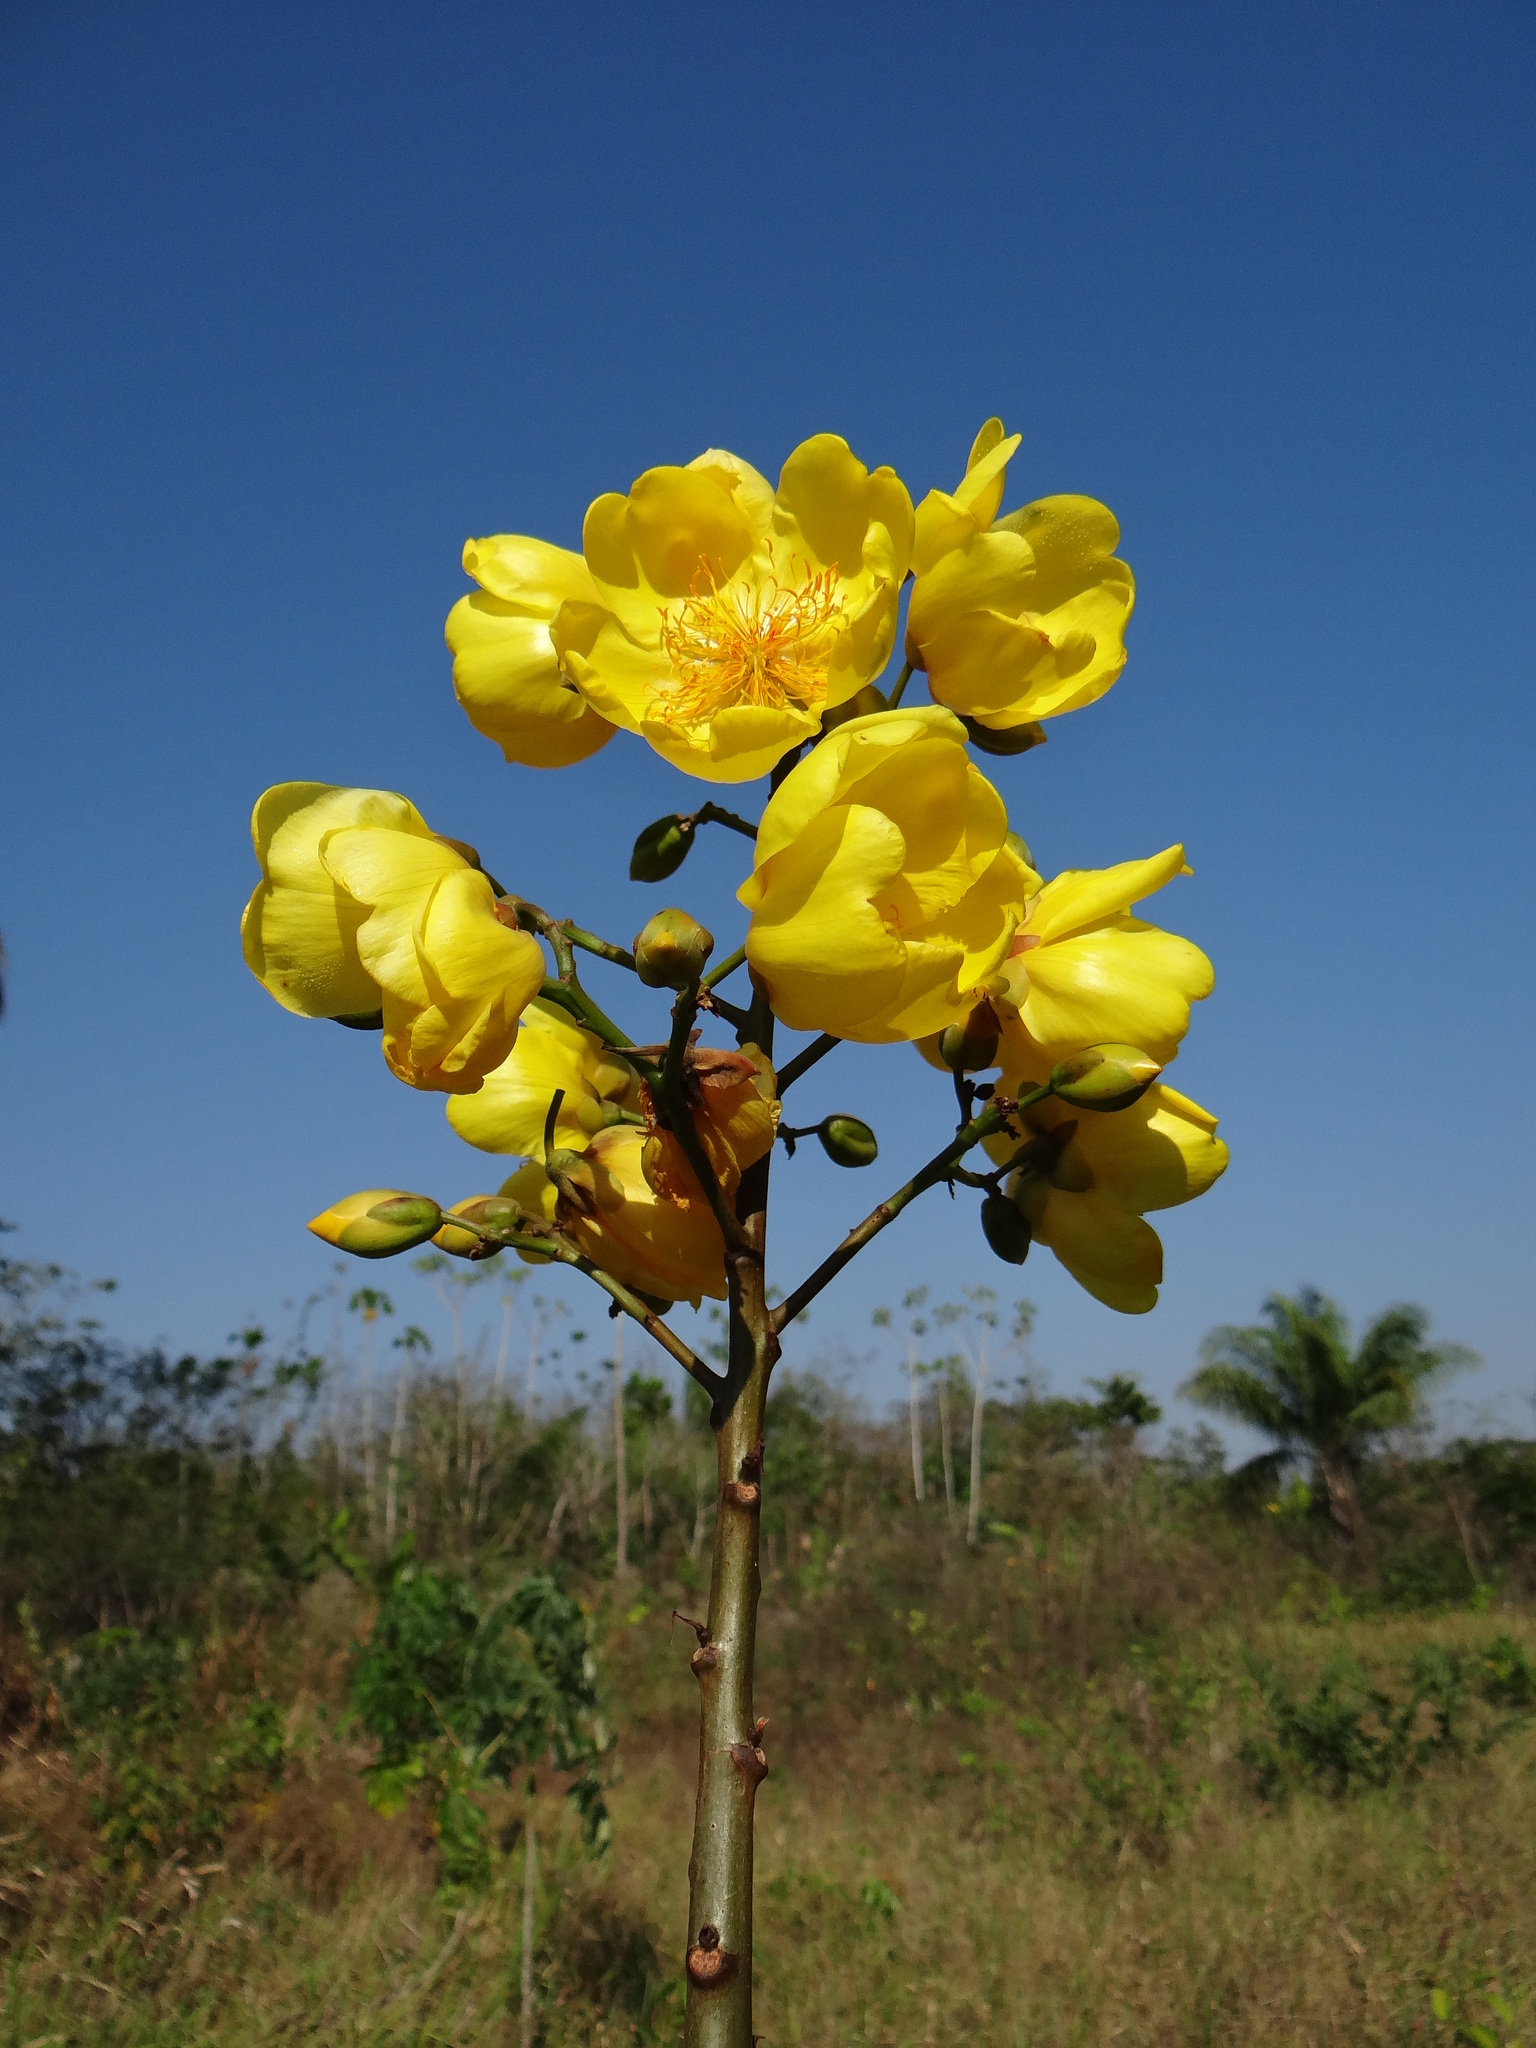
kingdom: Plantae
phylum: Tracheophyta
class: Magnoliopsida
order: Malvales
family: Cochlospermaceae
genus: Cochlospermum
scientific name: Cochlospermum vitifolium
